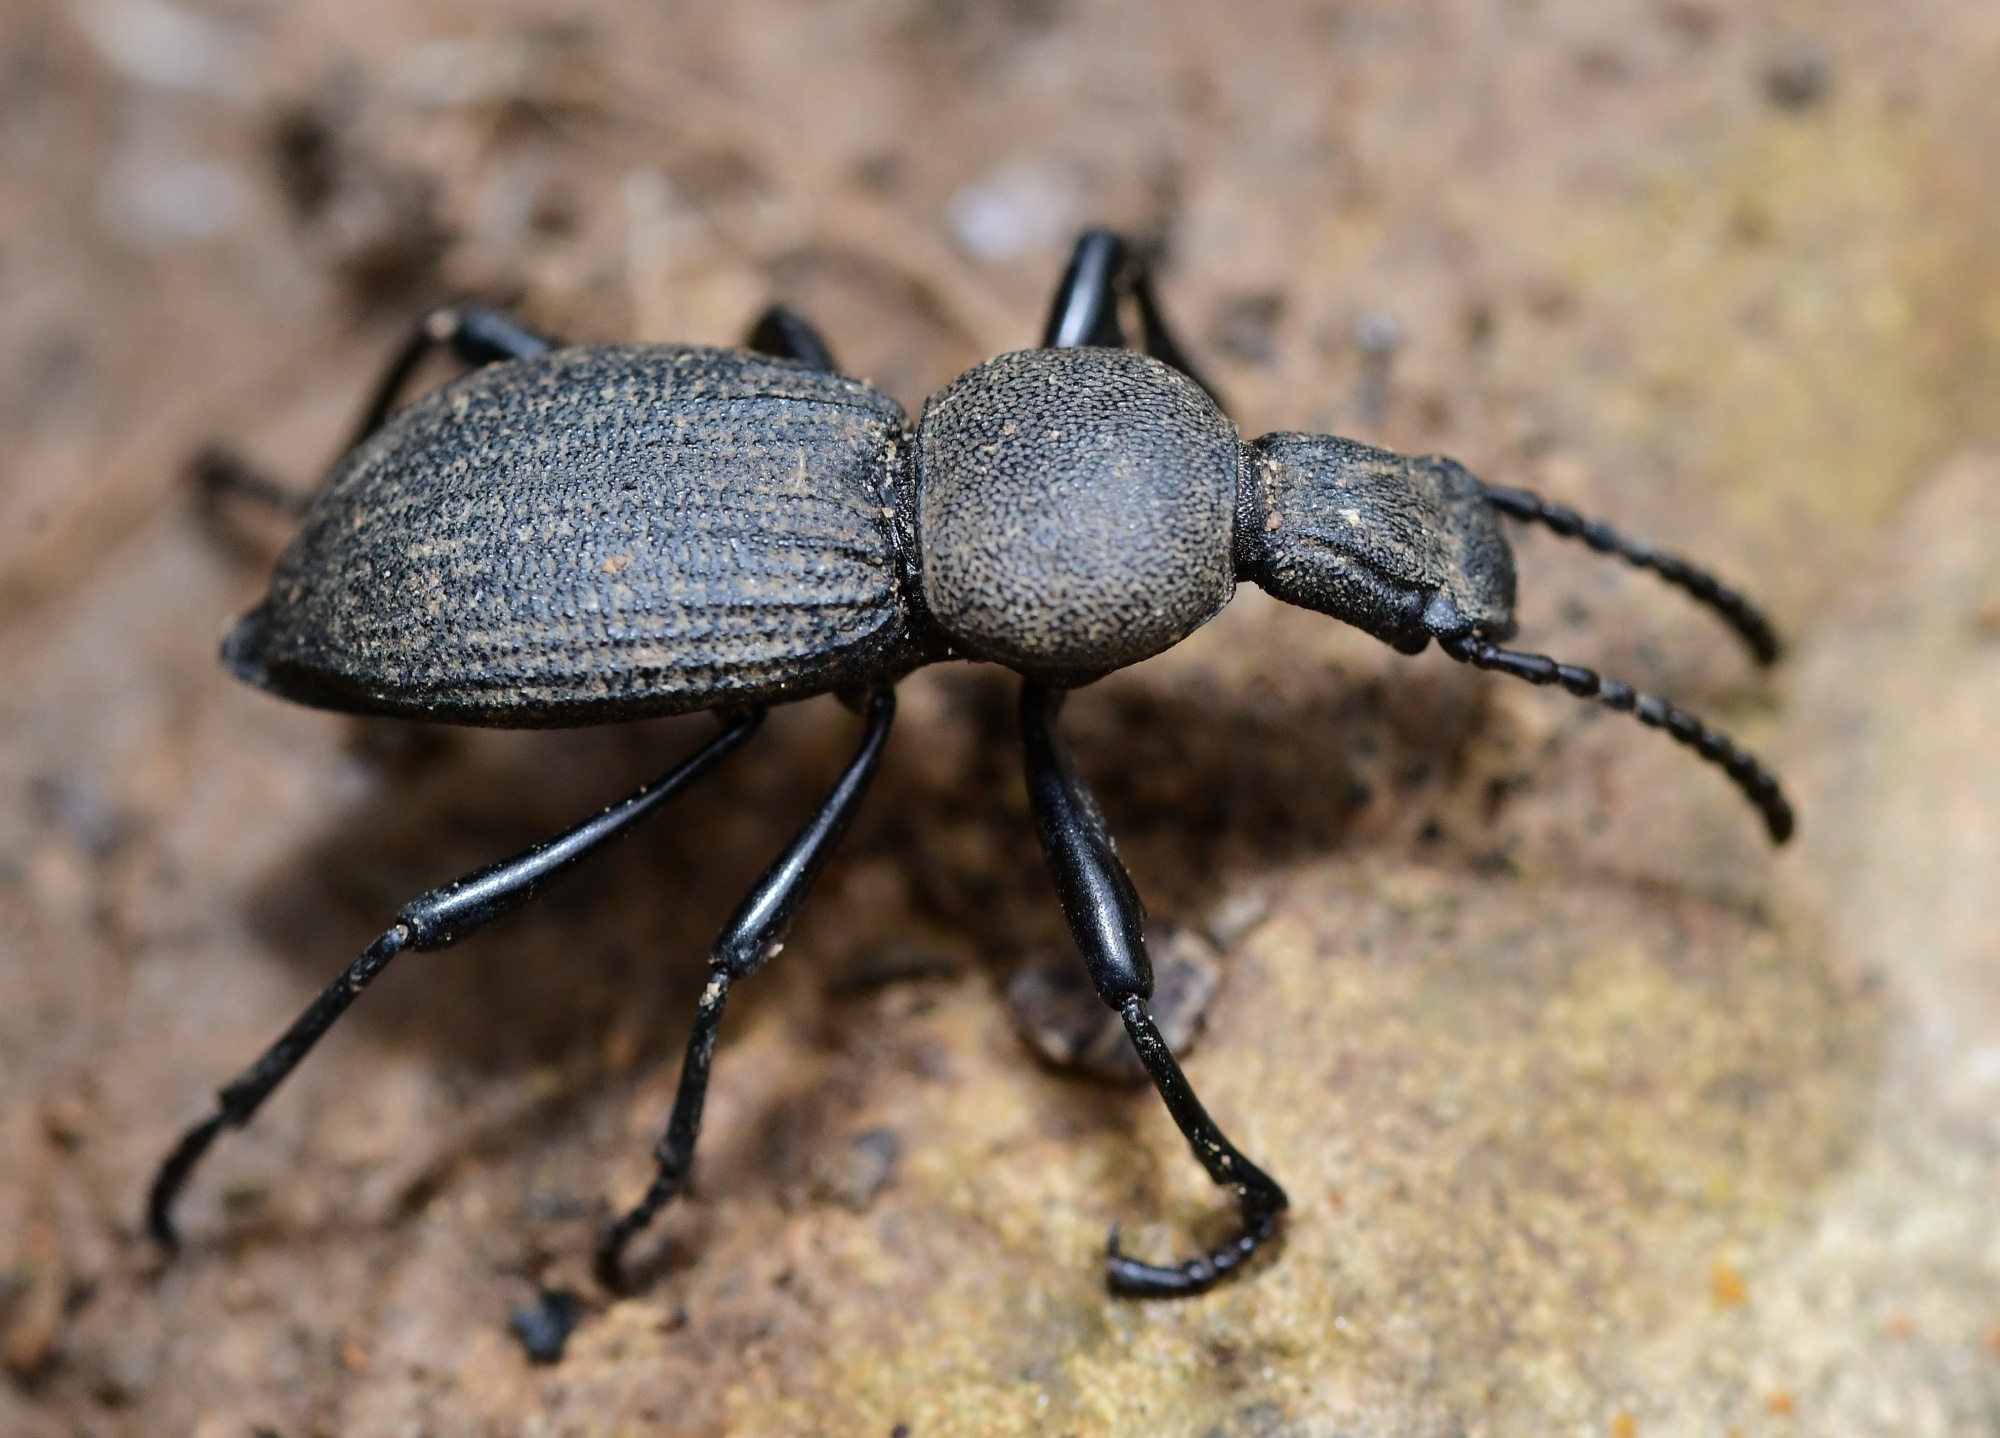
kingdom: Animalia
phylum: Arthropoda
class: Insecta
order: Coleoptera
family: Tenebrionidae
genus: Cephalostenus
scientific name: Cephalostenus elegans
